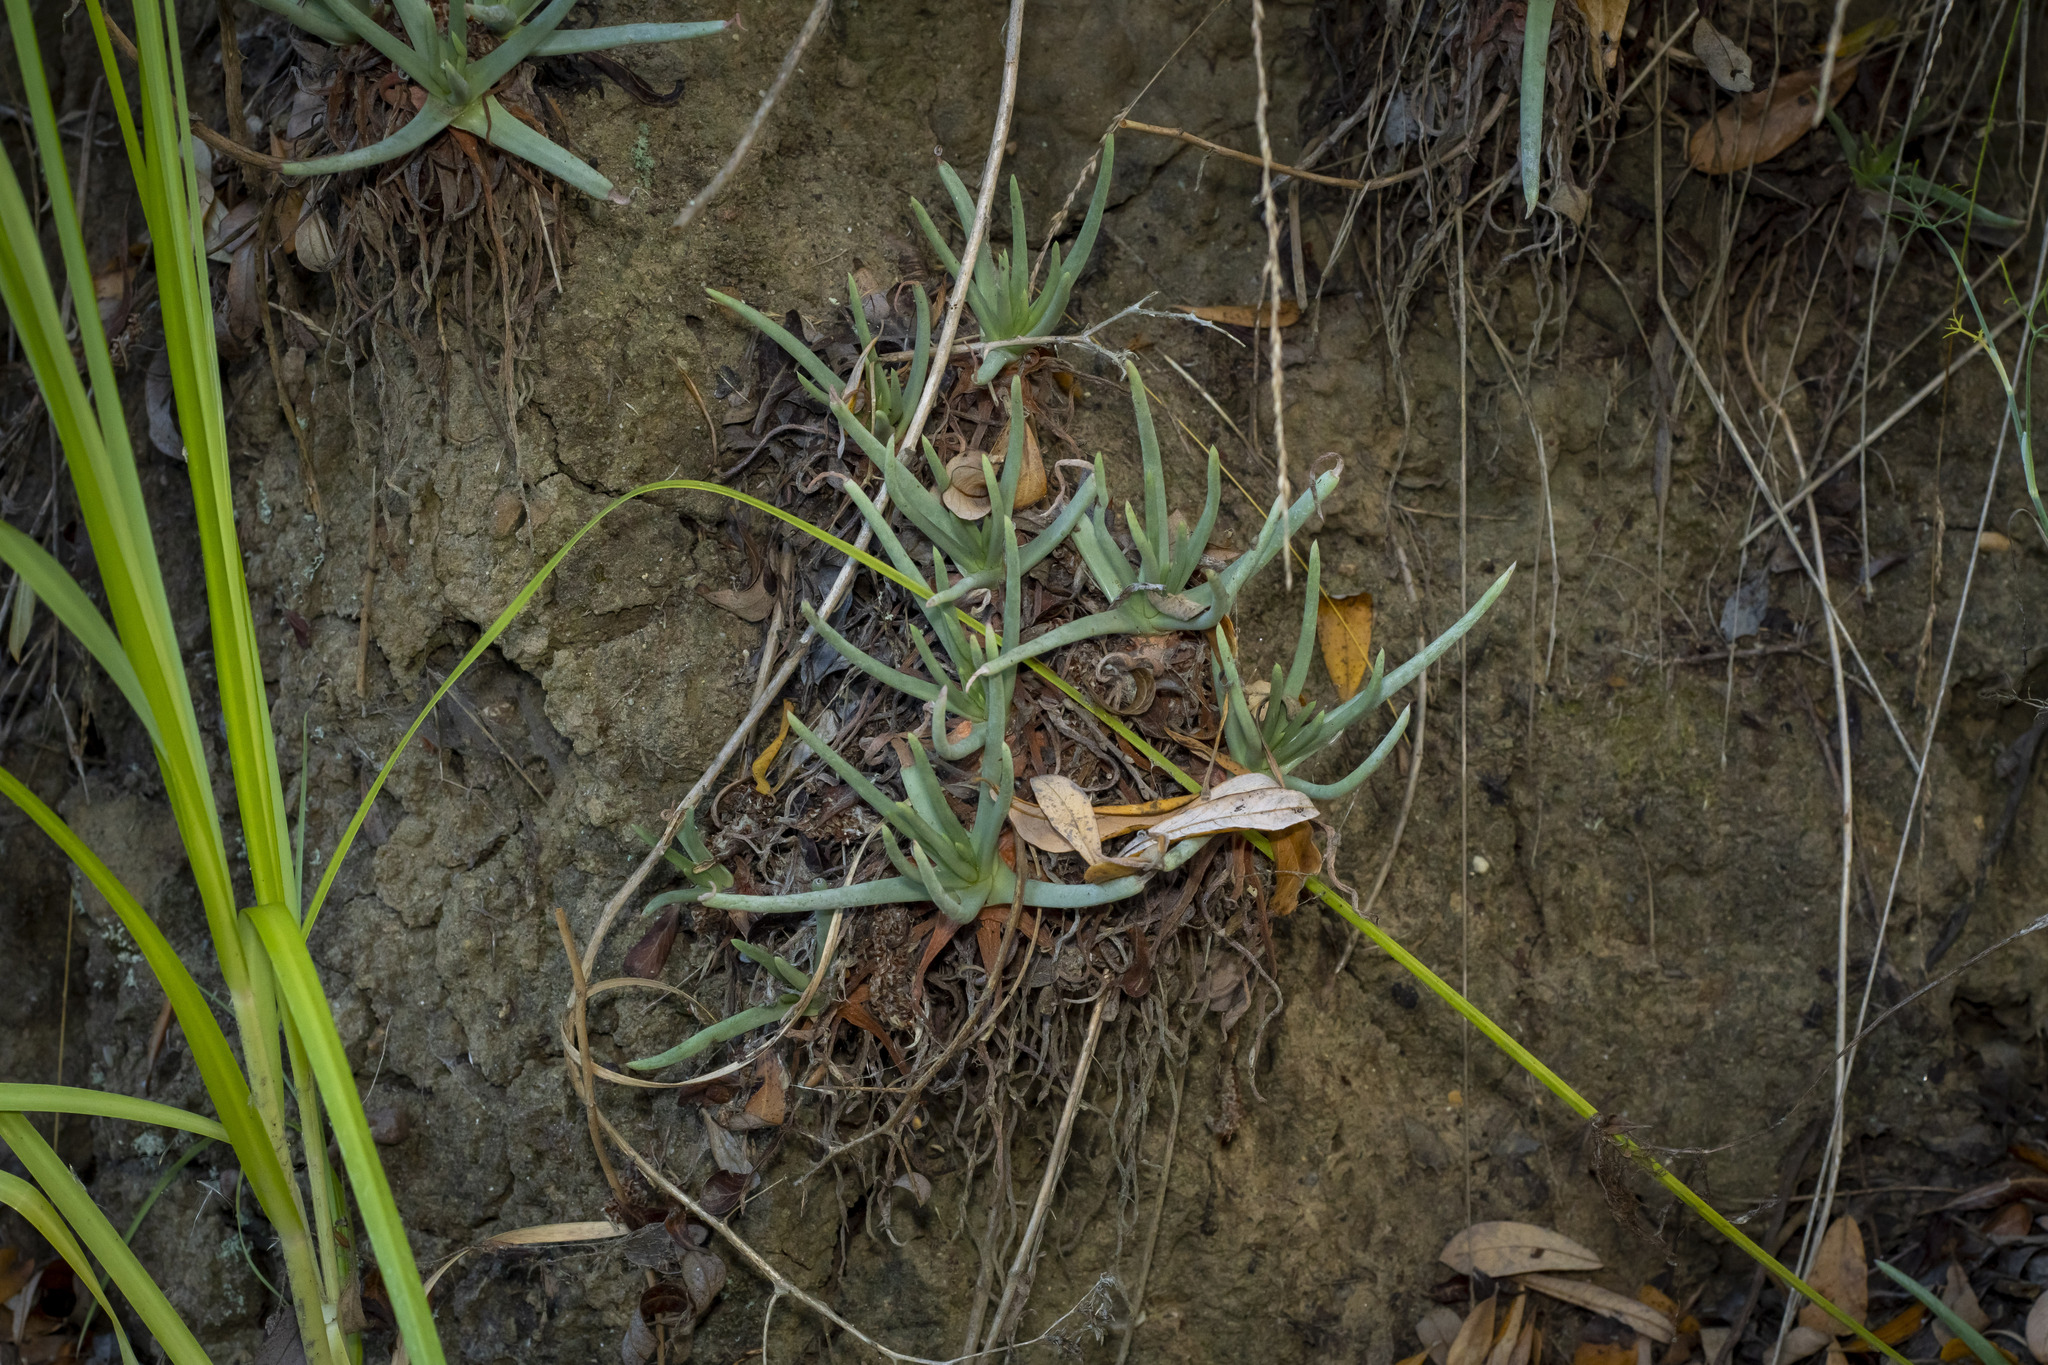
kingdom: Plantae
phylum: Tracheophyta
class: Magnoliopsida
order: Saxifragales
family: Crassulaceae
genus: Dudleya
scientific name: Dudleya edulis
